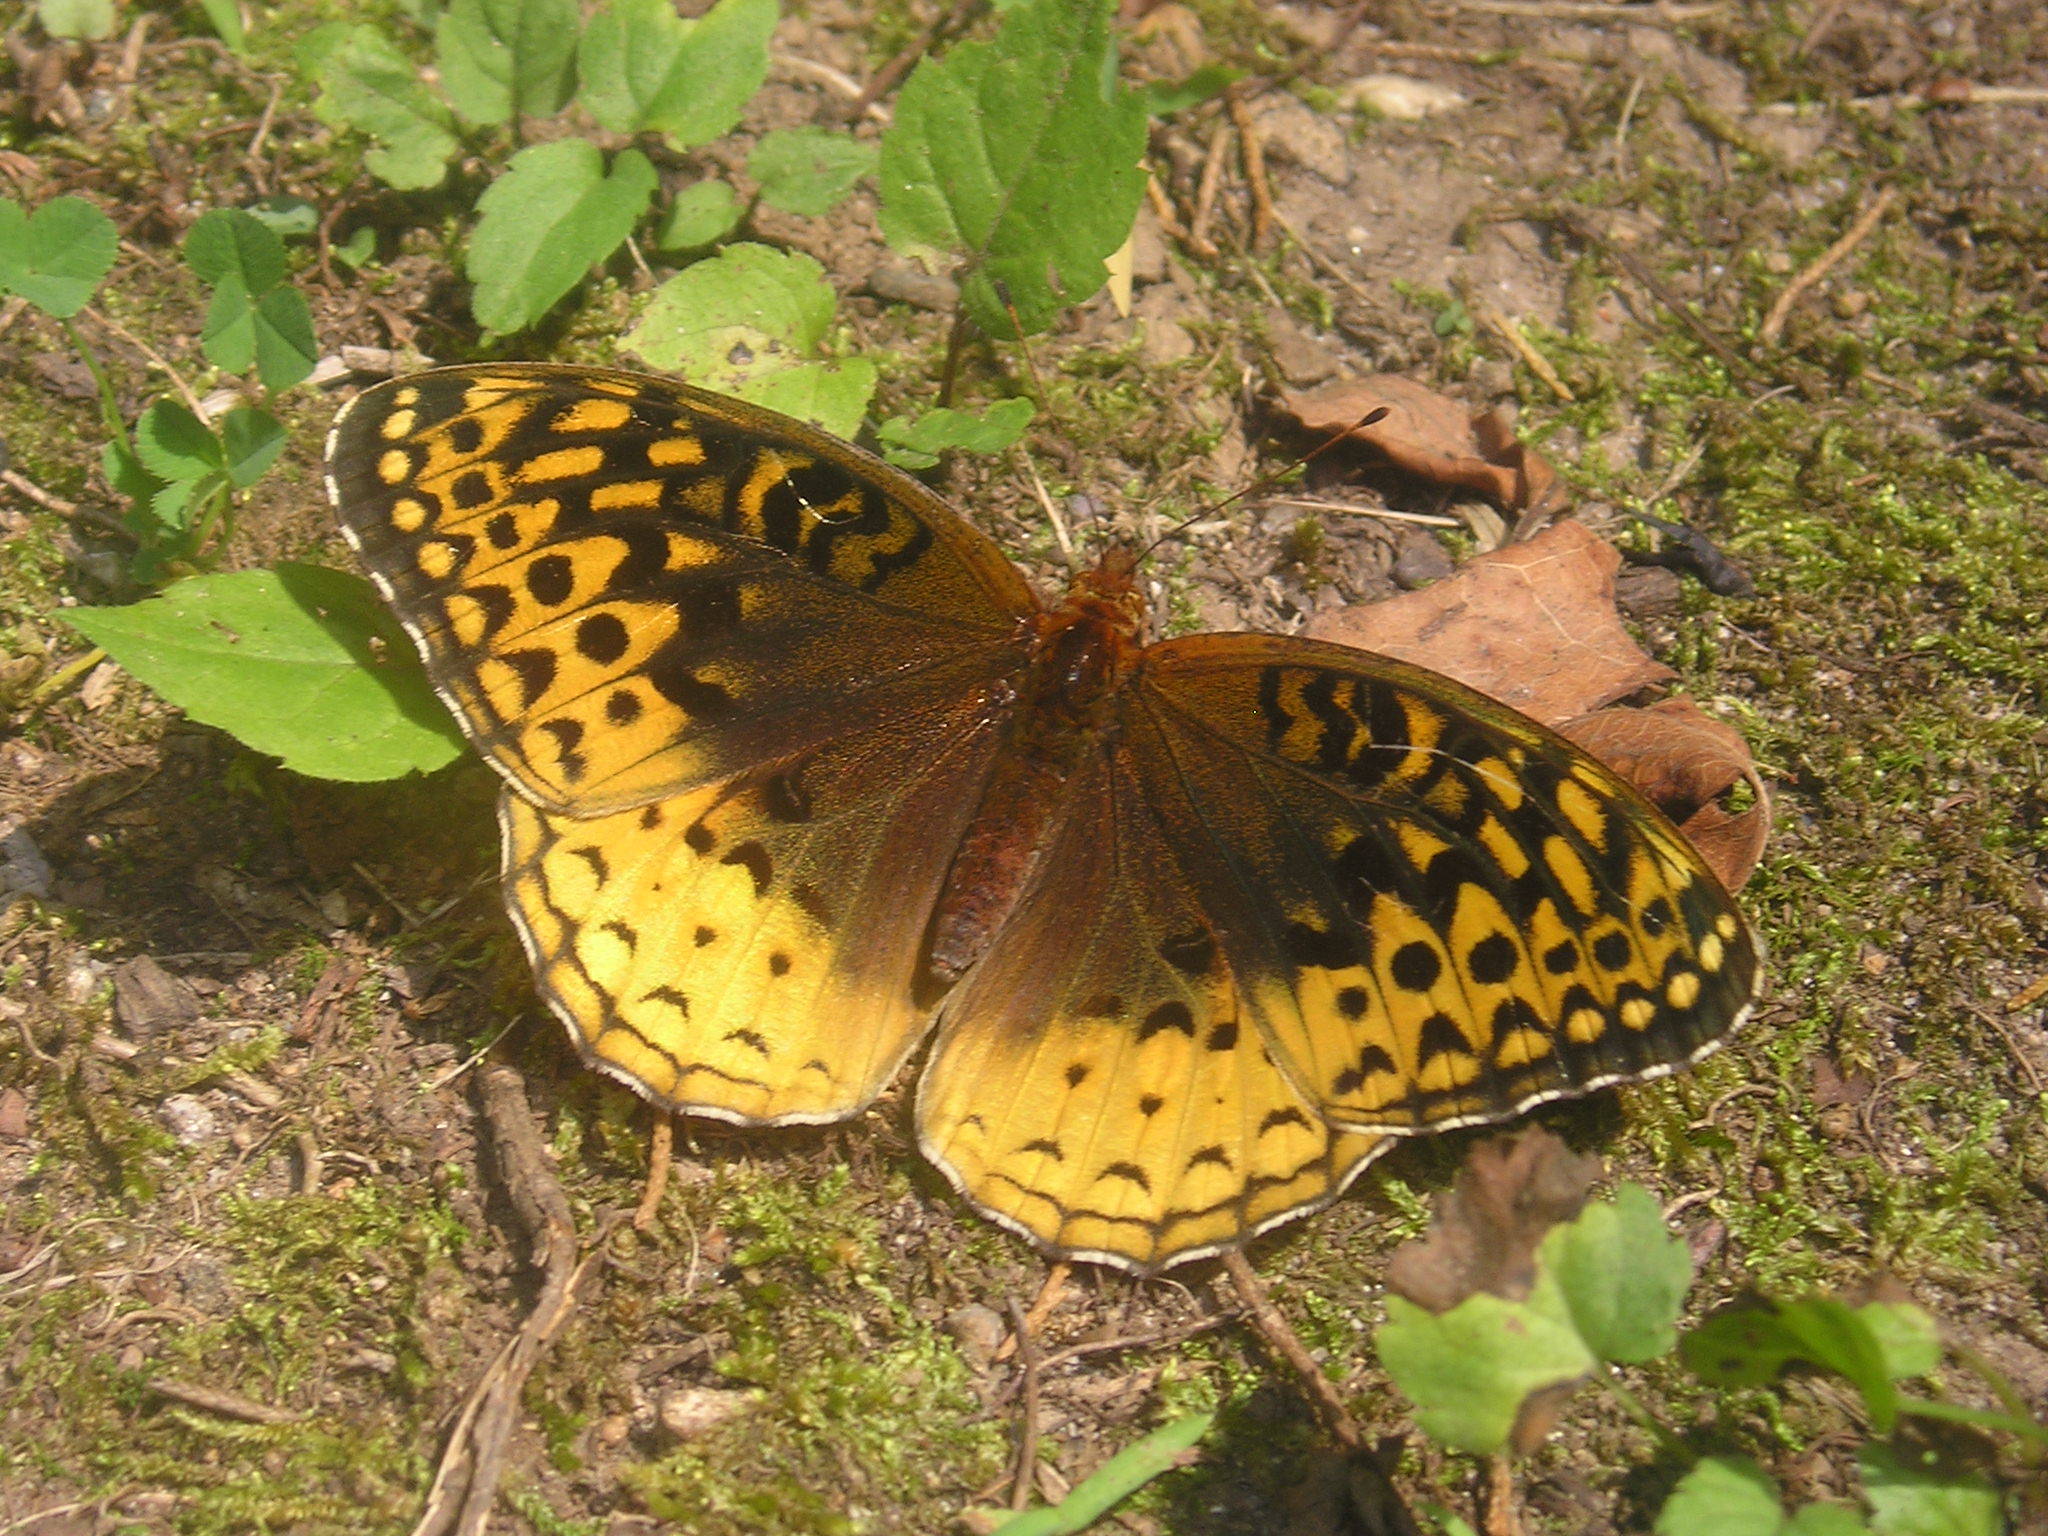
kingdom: Animalia
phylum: Arthropoda
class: Insecta
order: Lepidoptera
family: Nymphalidae
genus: Speyeria
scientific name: Speyeria cybele
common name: Great spangled fritillary
